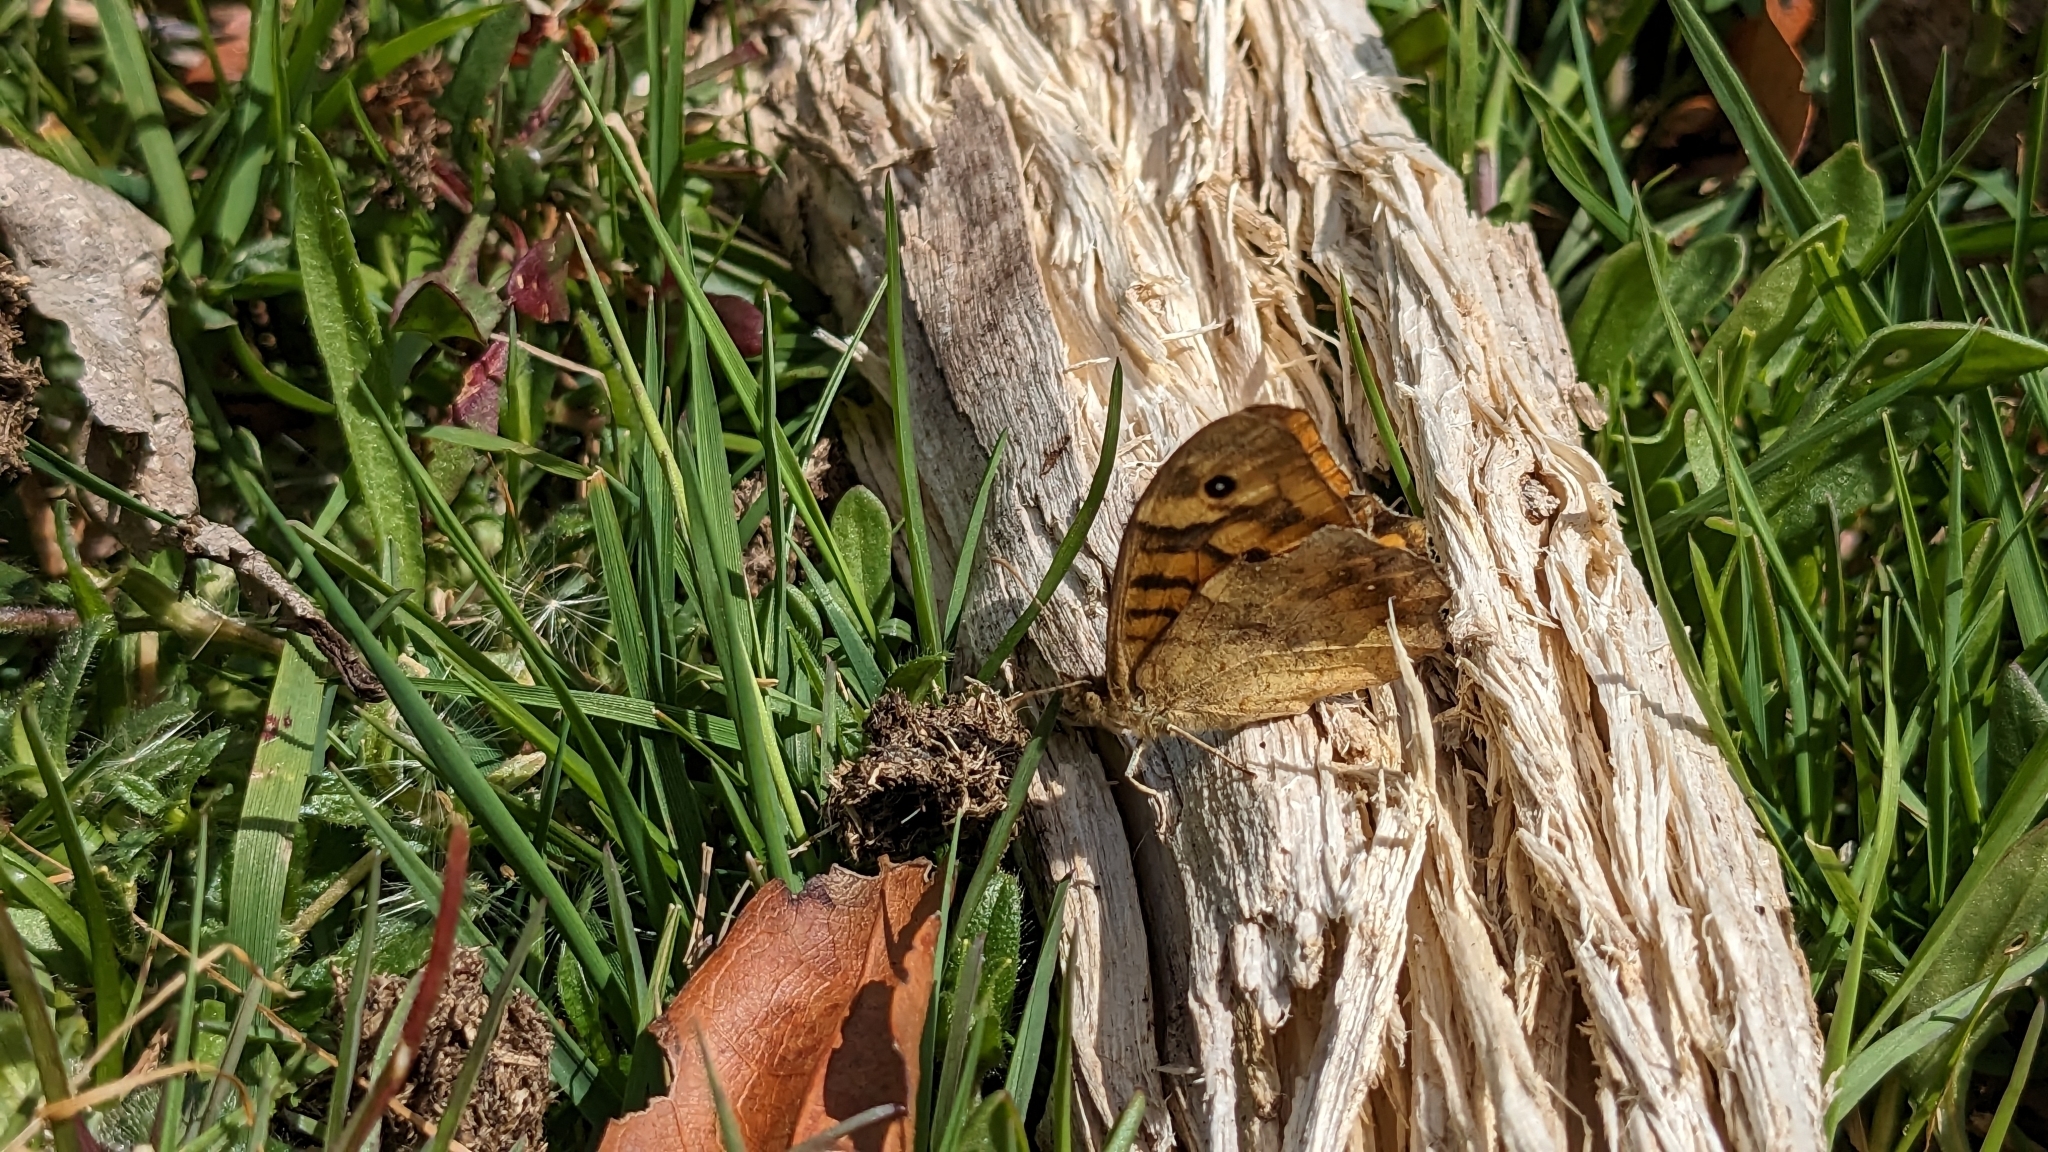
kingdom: Animalia
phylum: Arthropoda
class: Insecta
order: Lepidoptera
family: Nymphalidae
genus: Pararge
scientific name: Pararge aegeria
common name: Speckled wood
